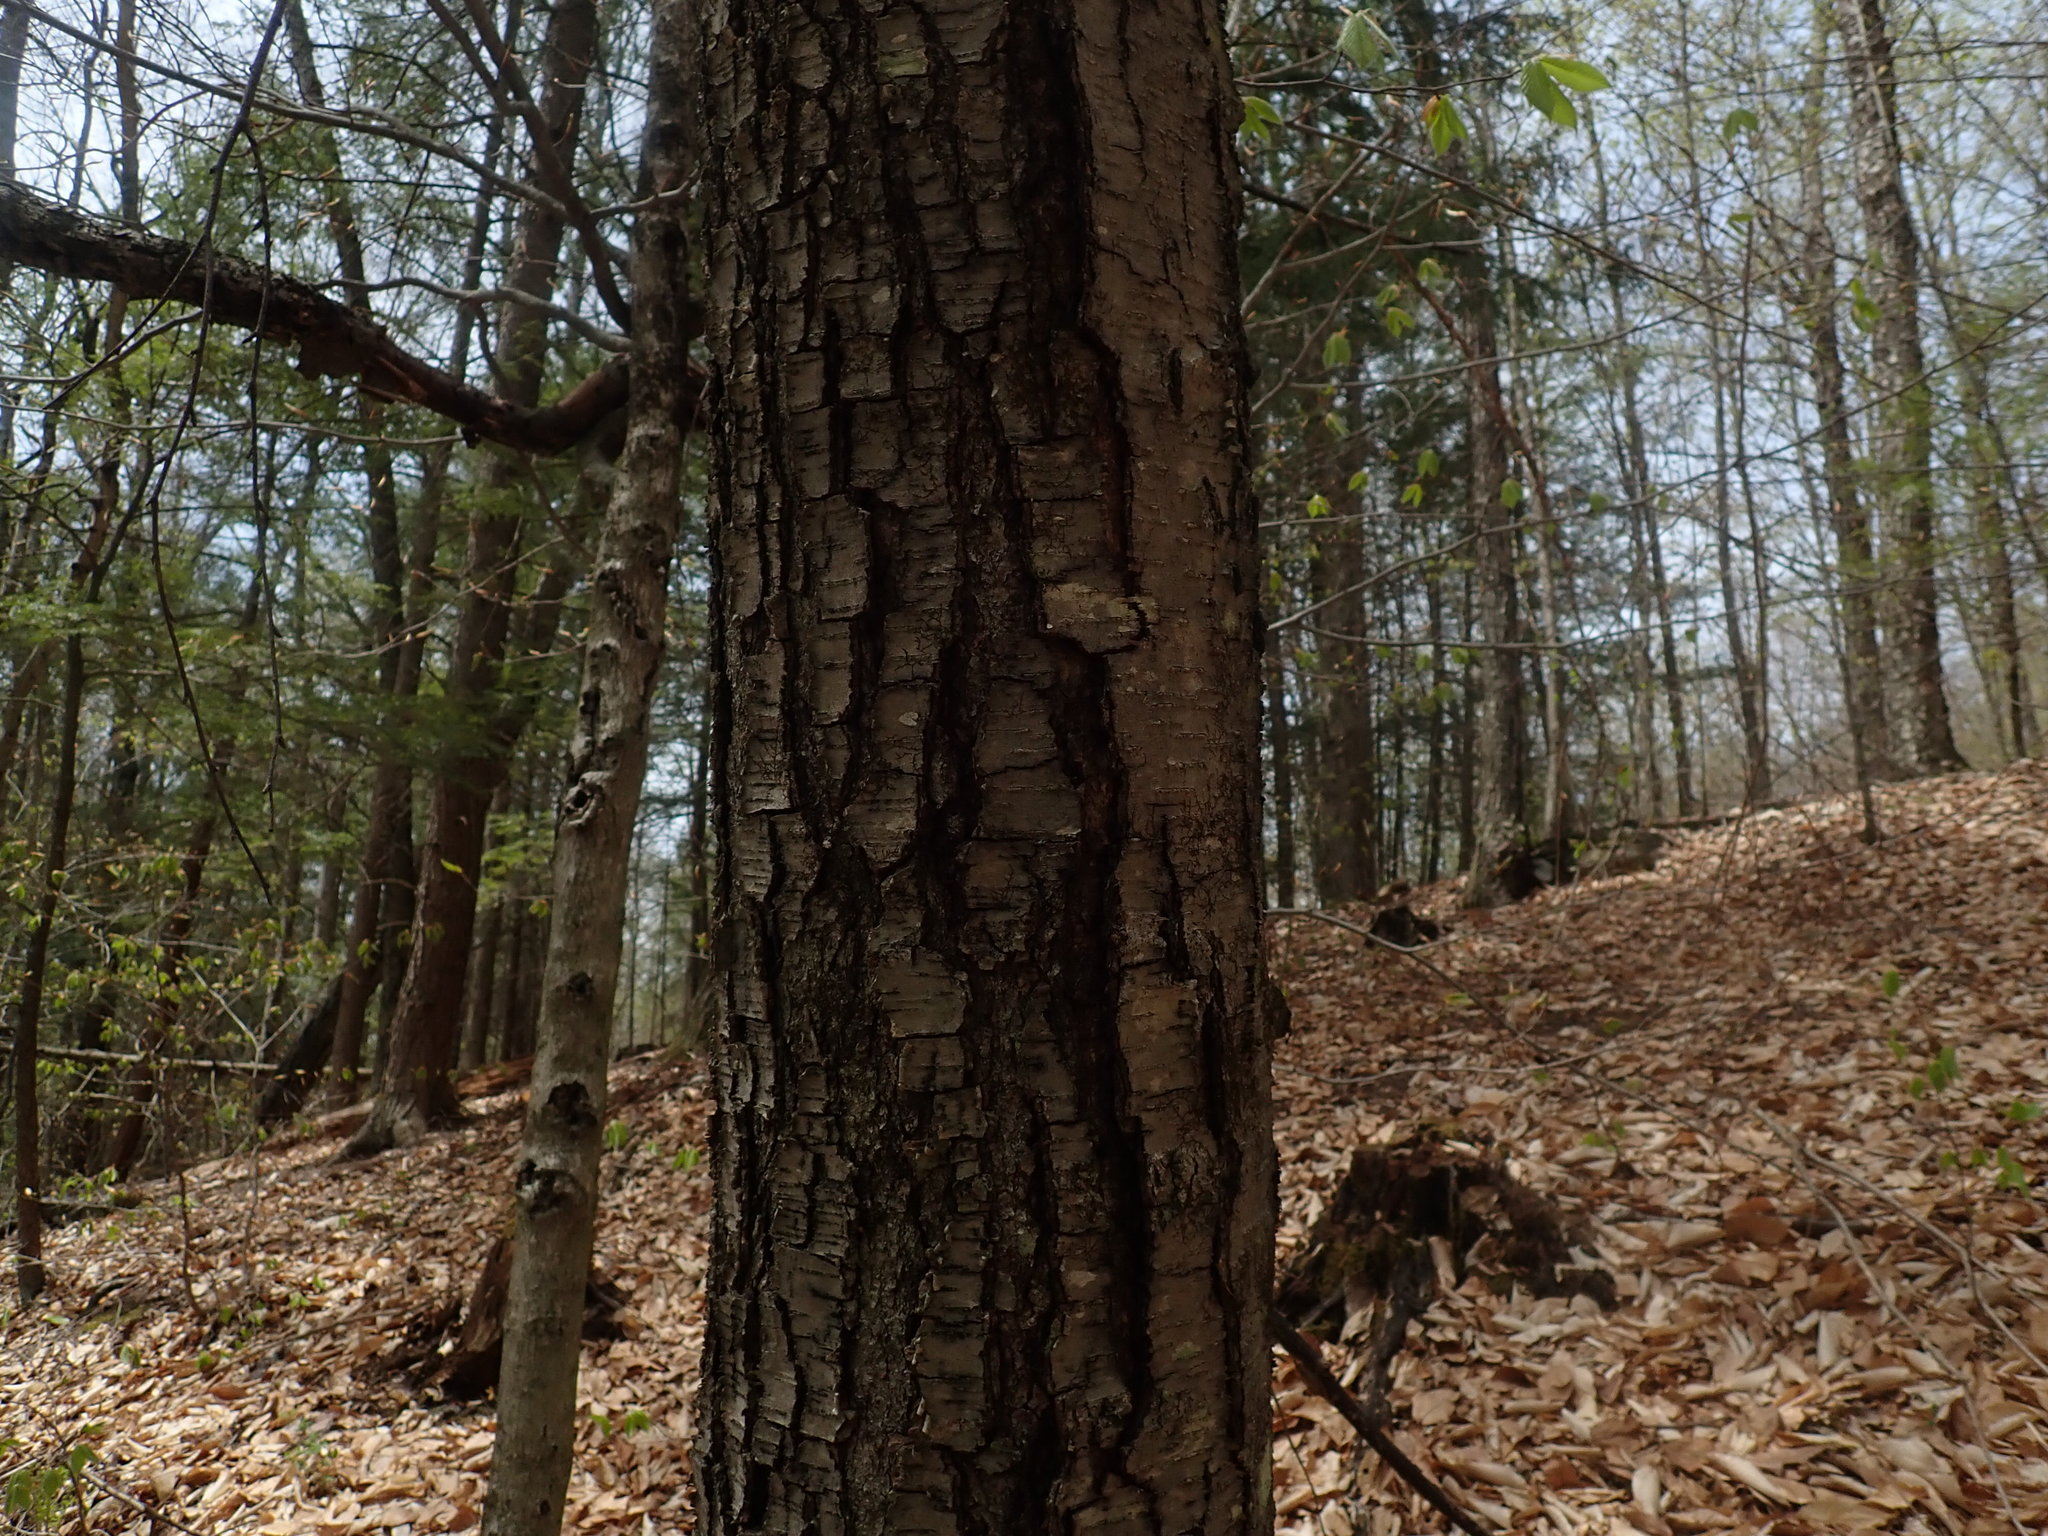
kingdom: Plantae
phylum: Tracheophyta
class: Magnoliopsida
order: Fagales
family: Betulaceae
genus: Betula
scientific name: Betula lenta
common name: Black birch
